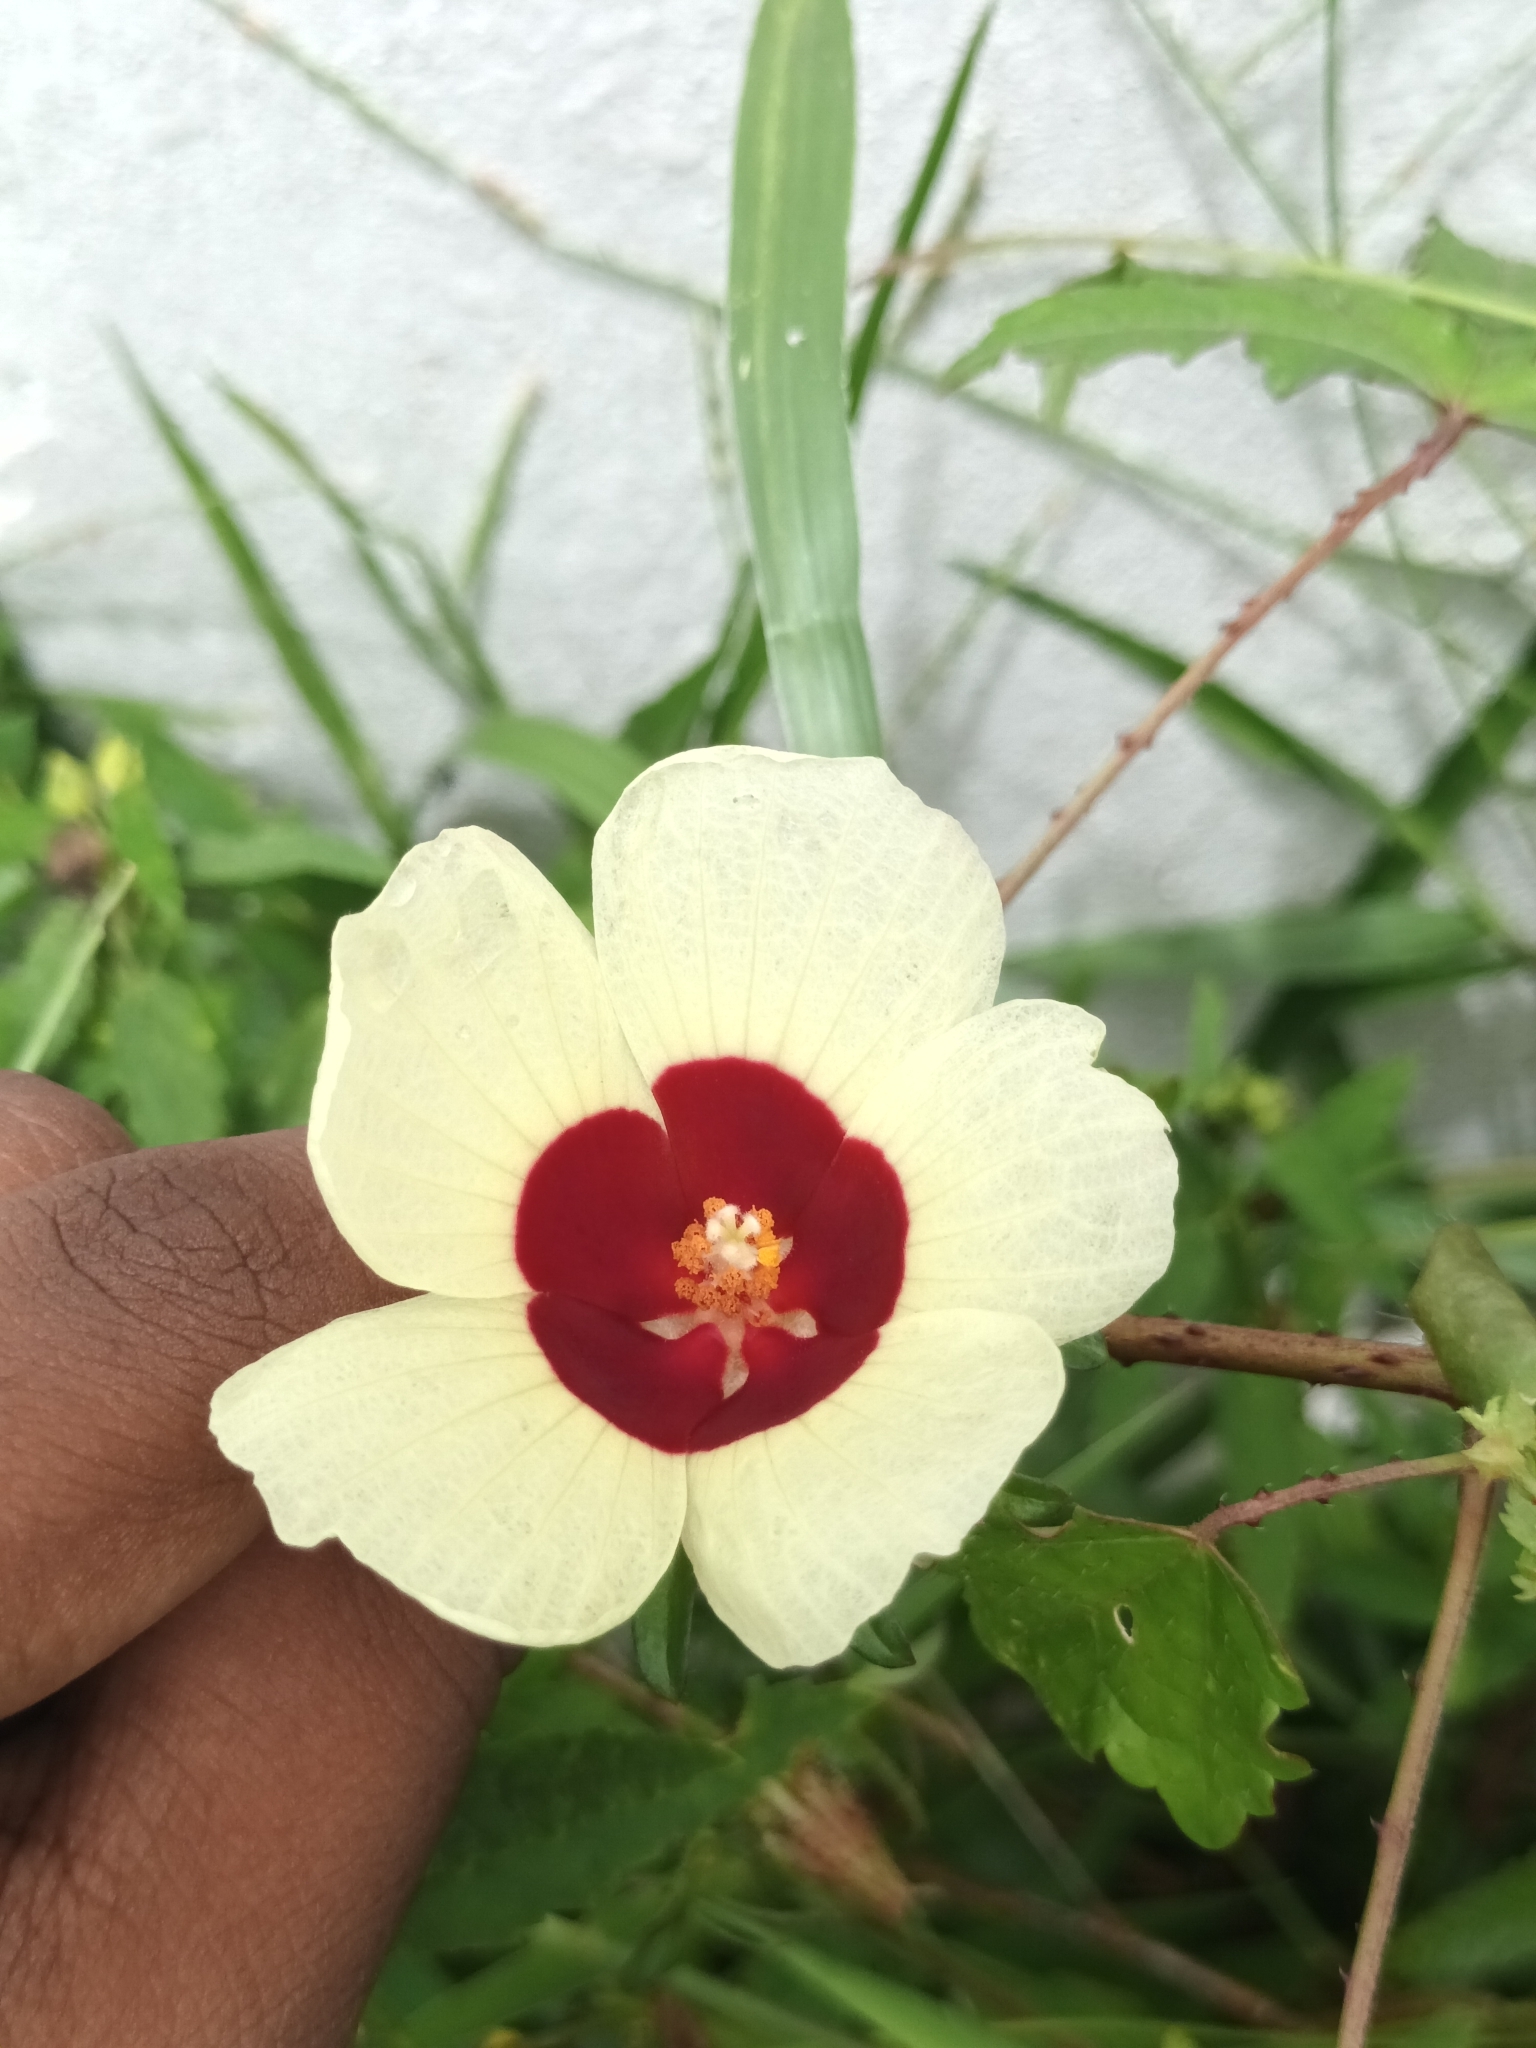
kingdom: Plantae
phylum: Tracheophyta
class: Magnoliopsida
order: Malvales
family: Malvaceae
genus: Hibiscus
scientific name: Hibiscus surattensis
